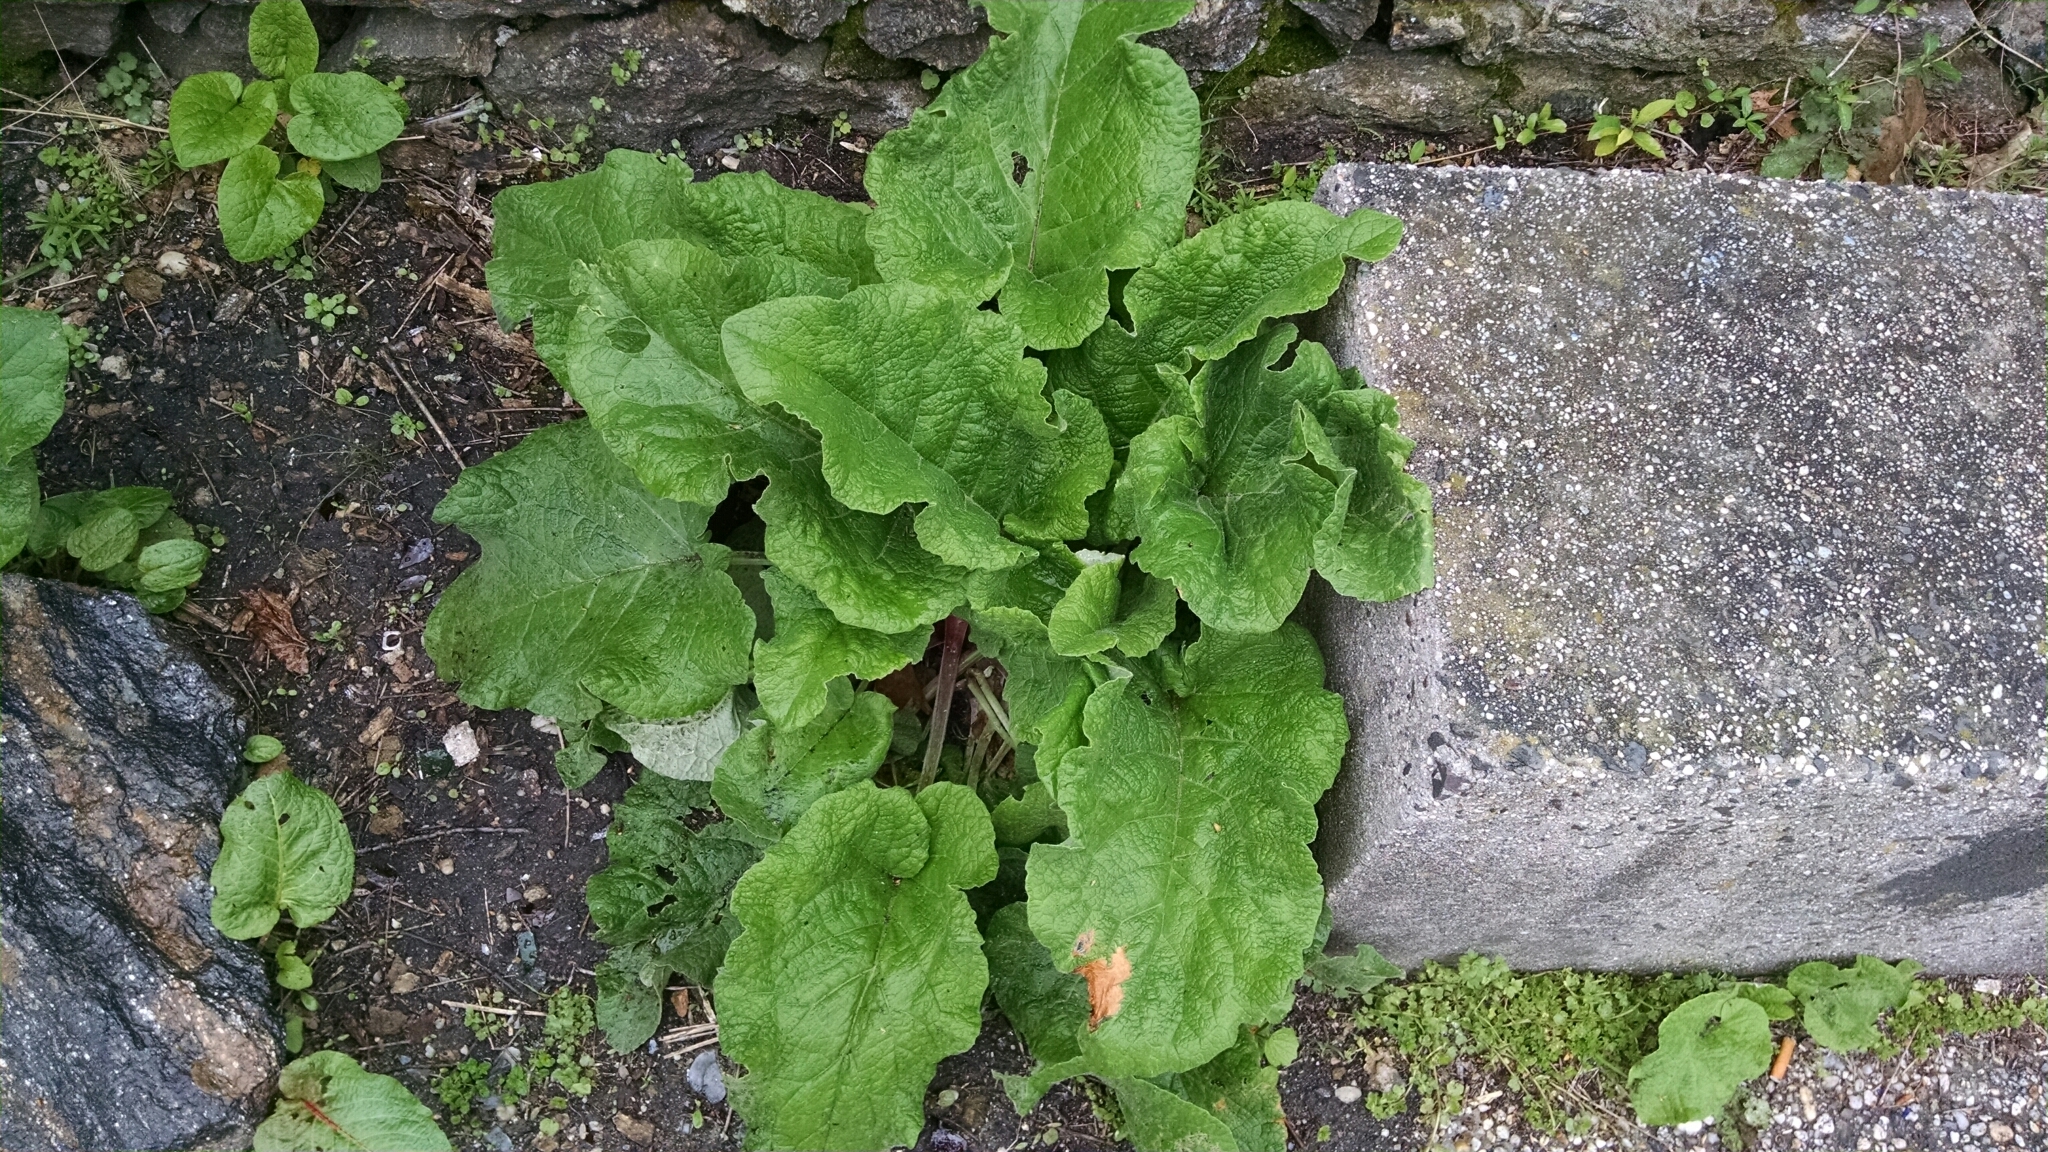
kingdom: Plantae
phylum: Tracheophyta
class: Magnoliopsida
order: Asterales
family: Asteraceae
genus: Arctium
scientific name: Arctium
